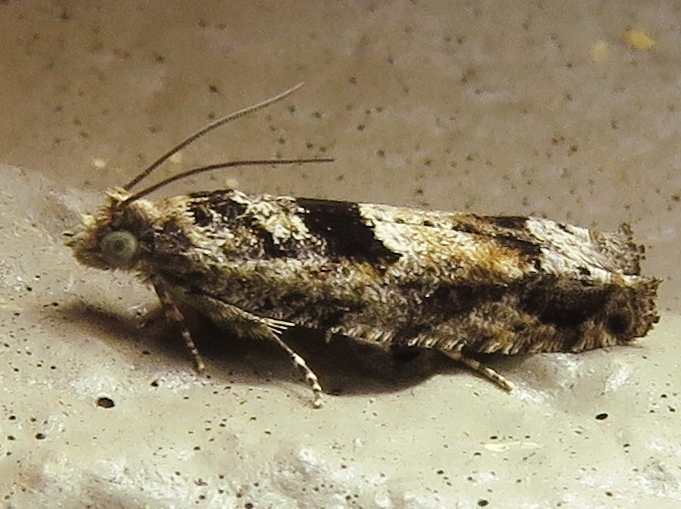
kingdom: Animalia
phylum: Arthropoda
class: Insecta
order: Lepidoptera
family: Tortricidae
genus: Pseudexentera
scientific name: Pseudexentera spoliana
